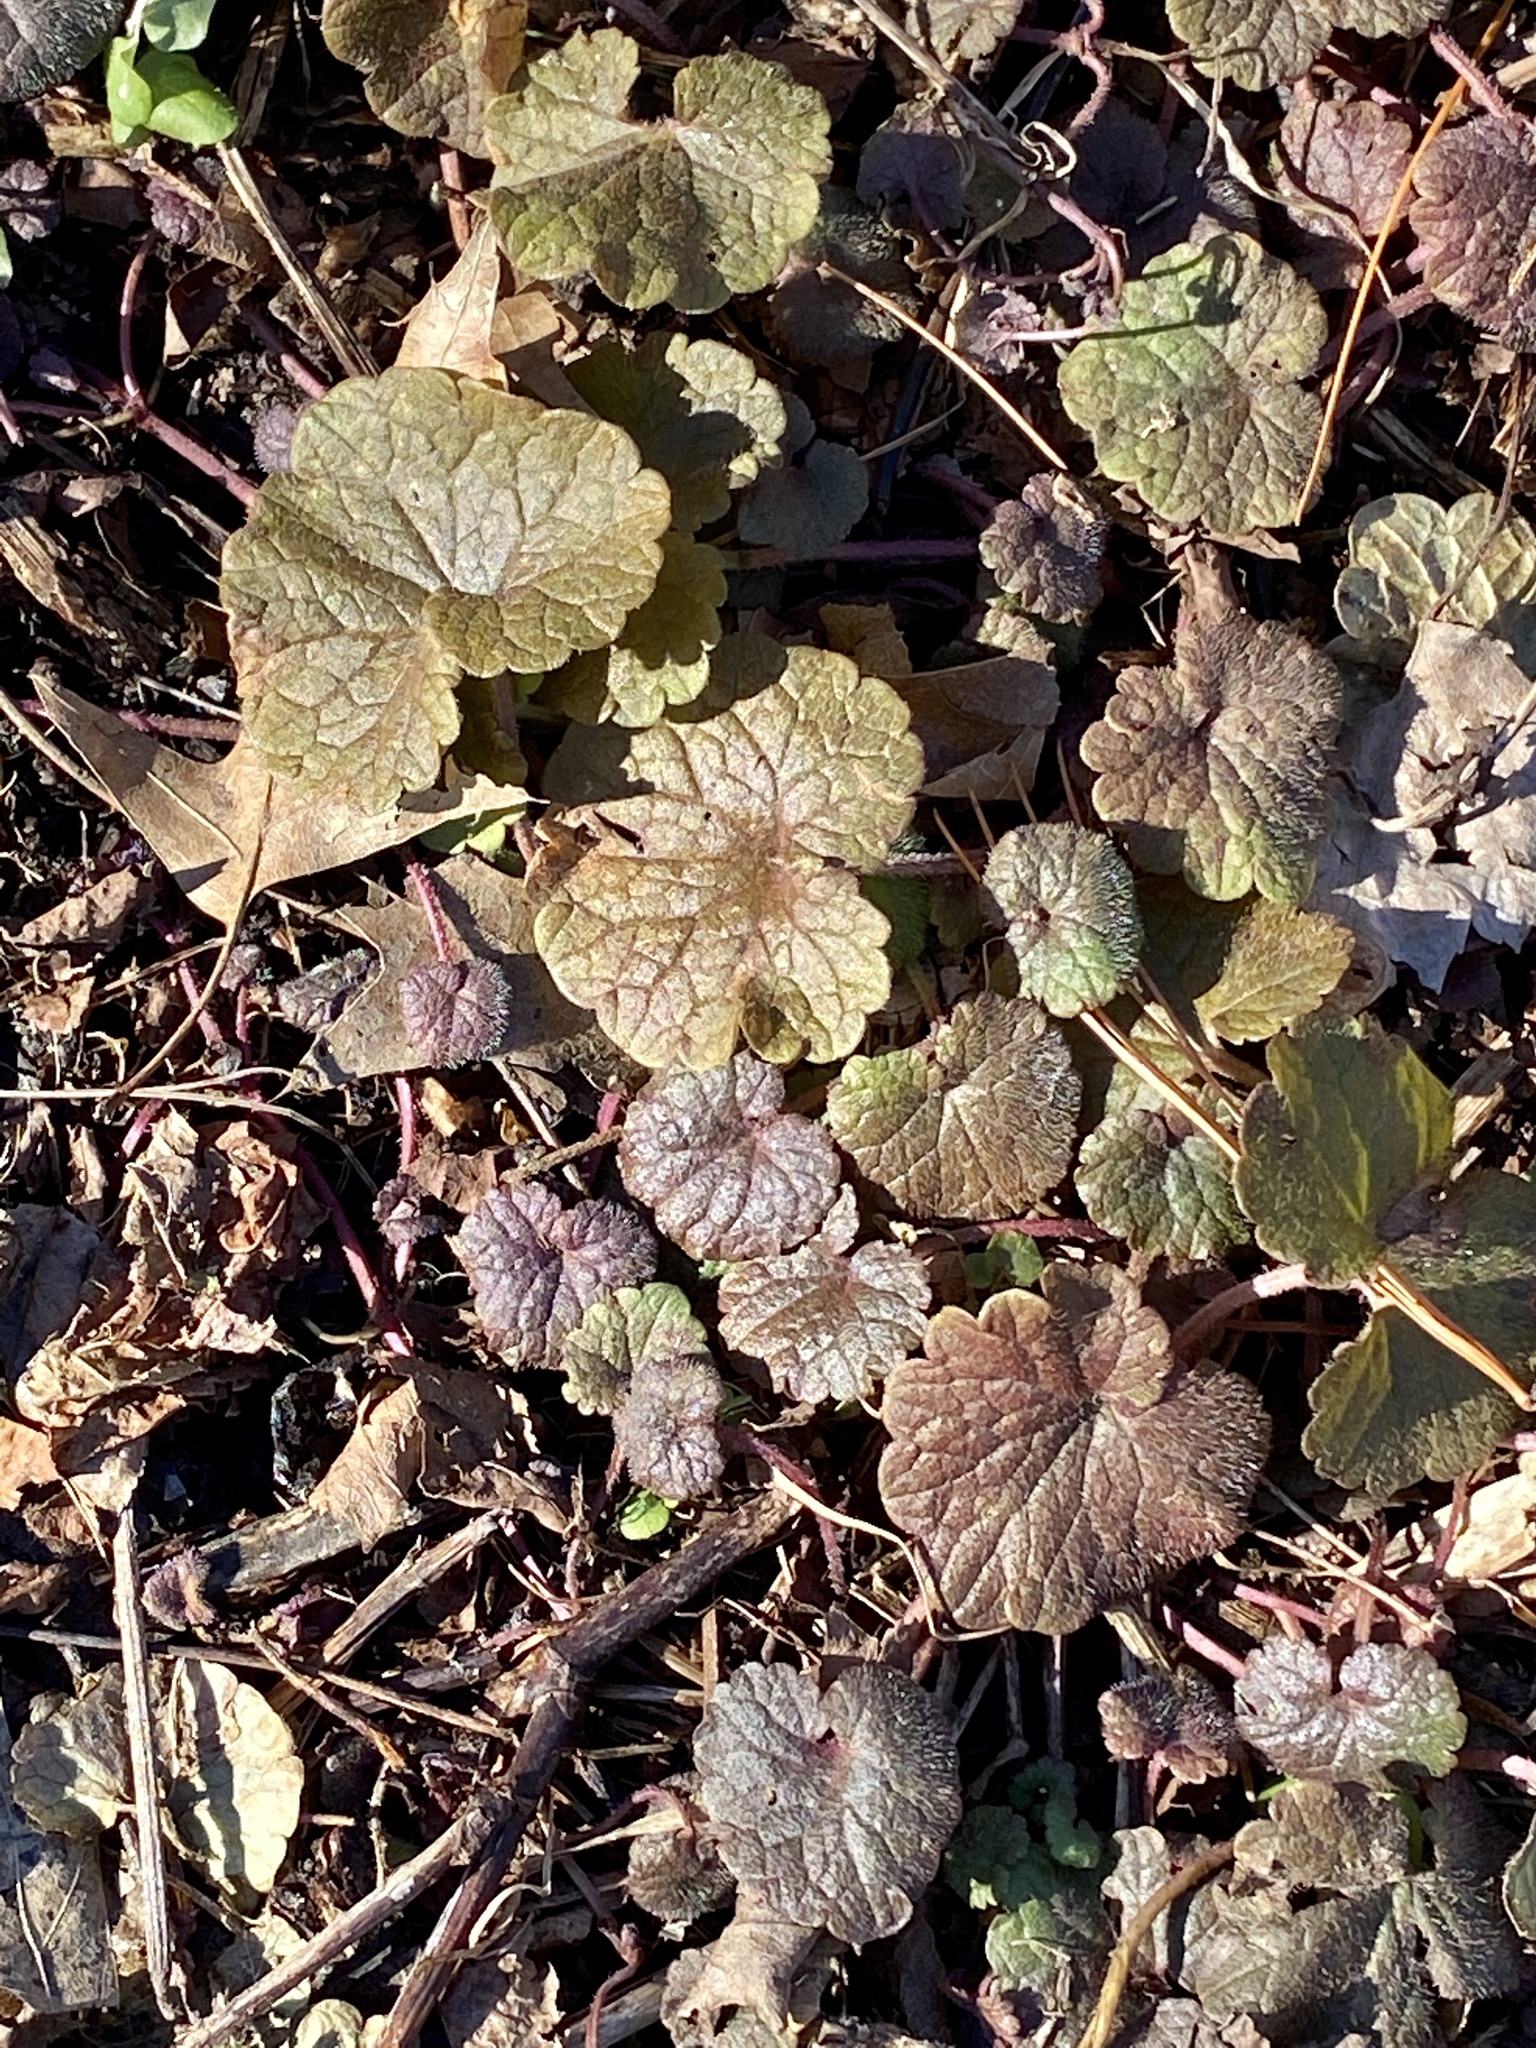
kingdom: Plantae
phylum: Tracheophyta
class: Magnoliopsida
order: Lamiales
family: Lamiaceae
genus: Glechoma
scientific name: Glechoma hederacea
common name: Ground ivy
